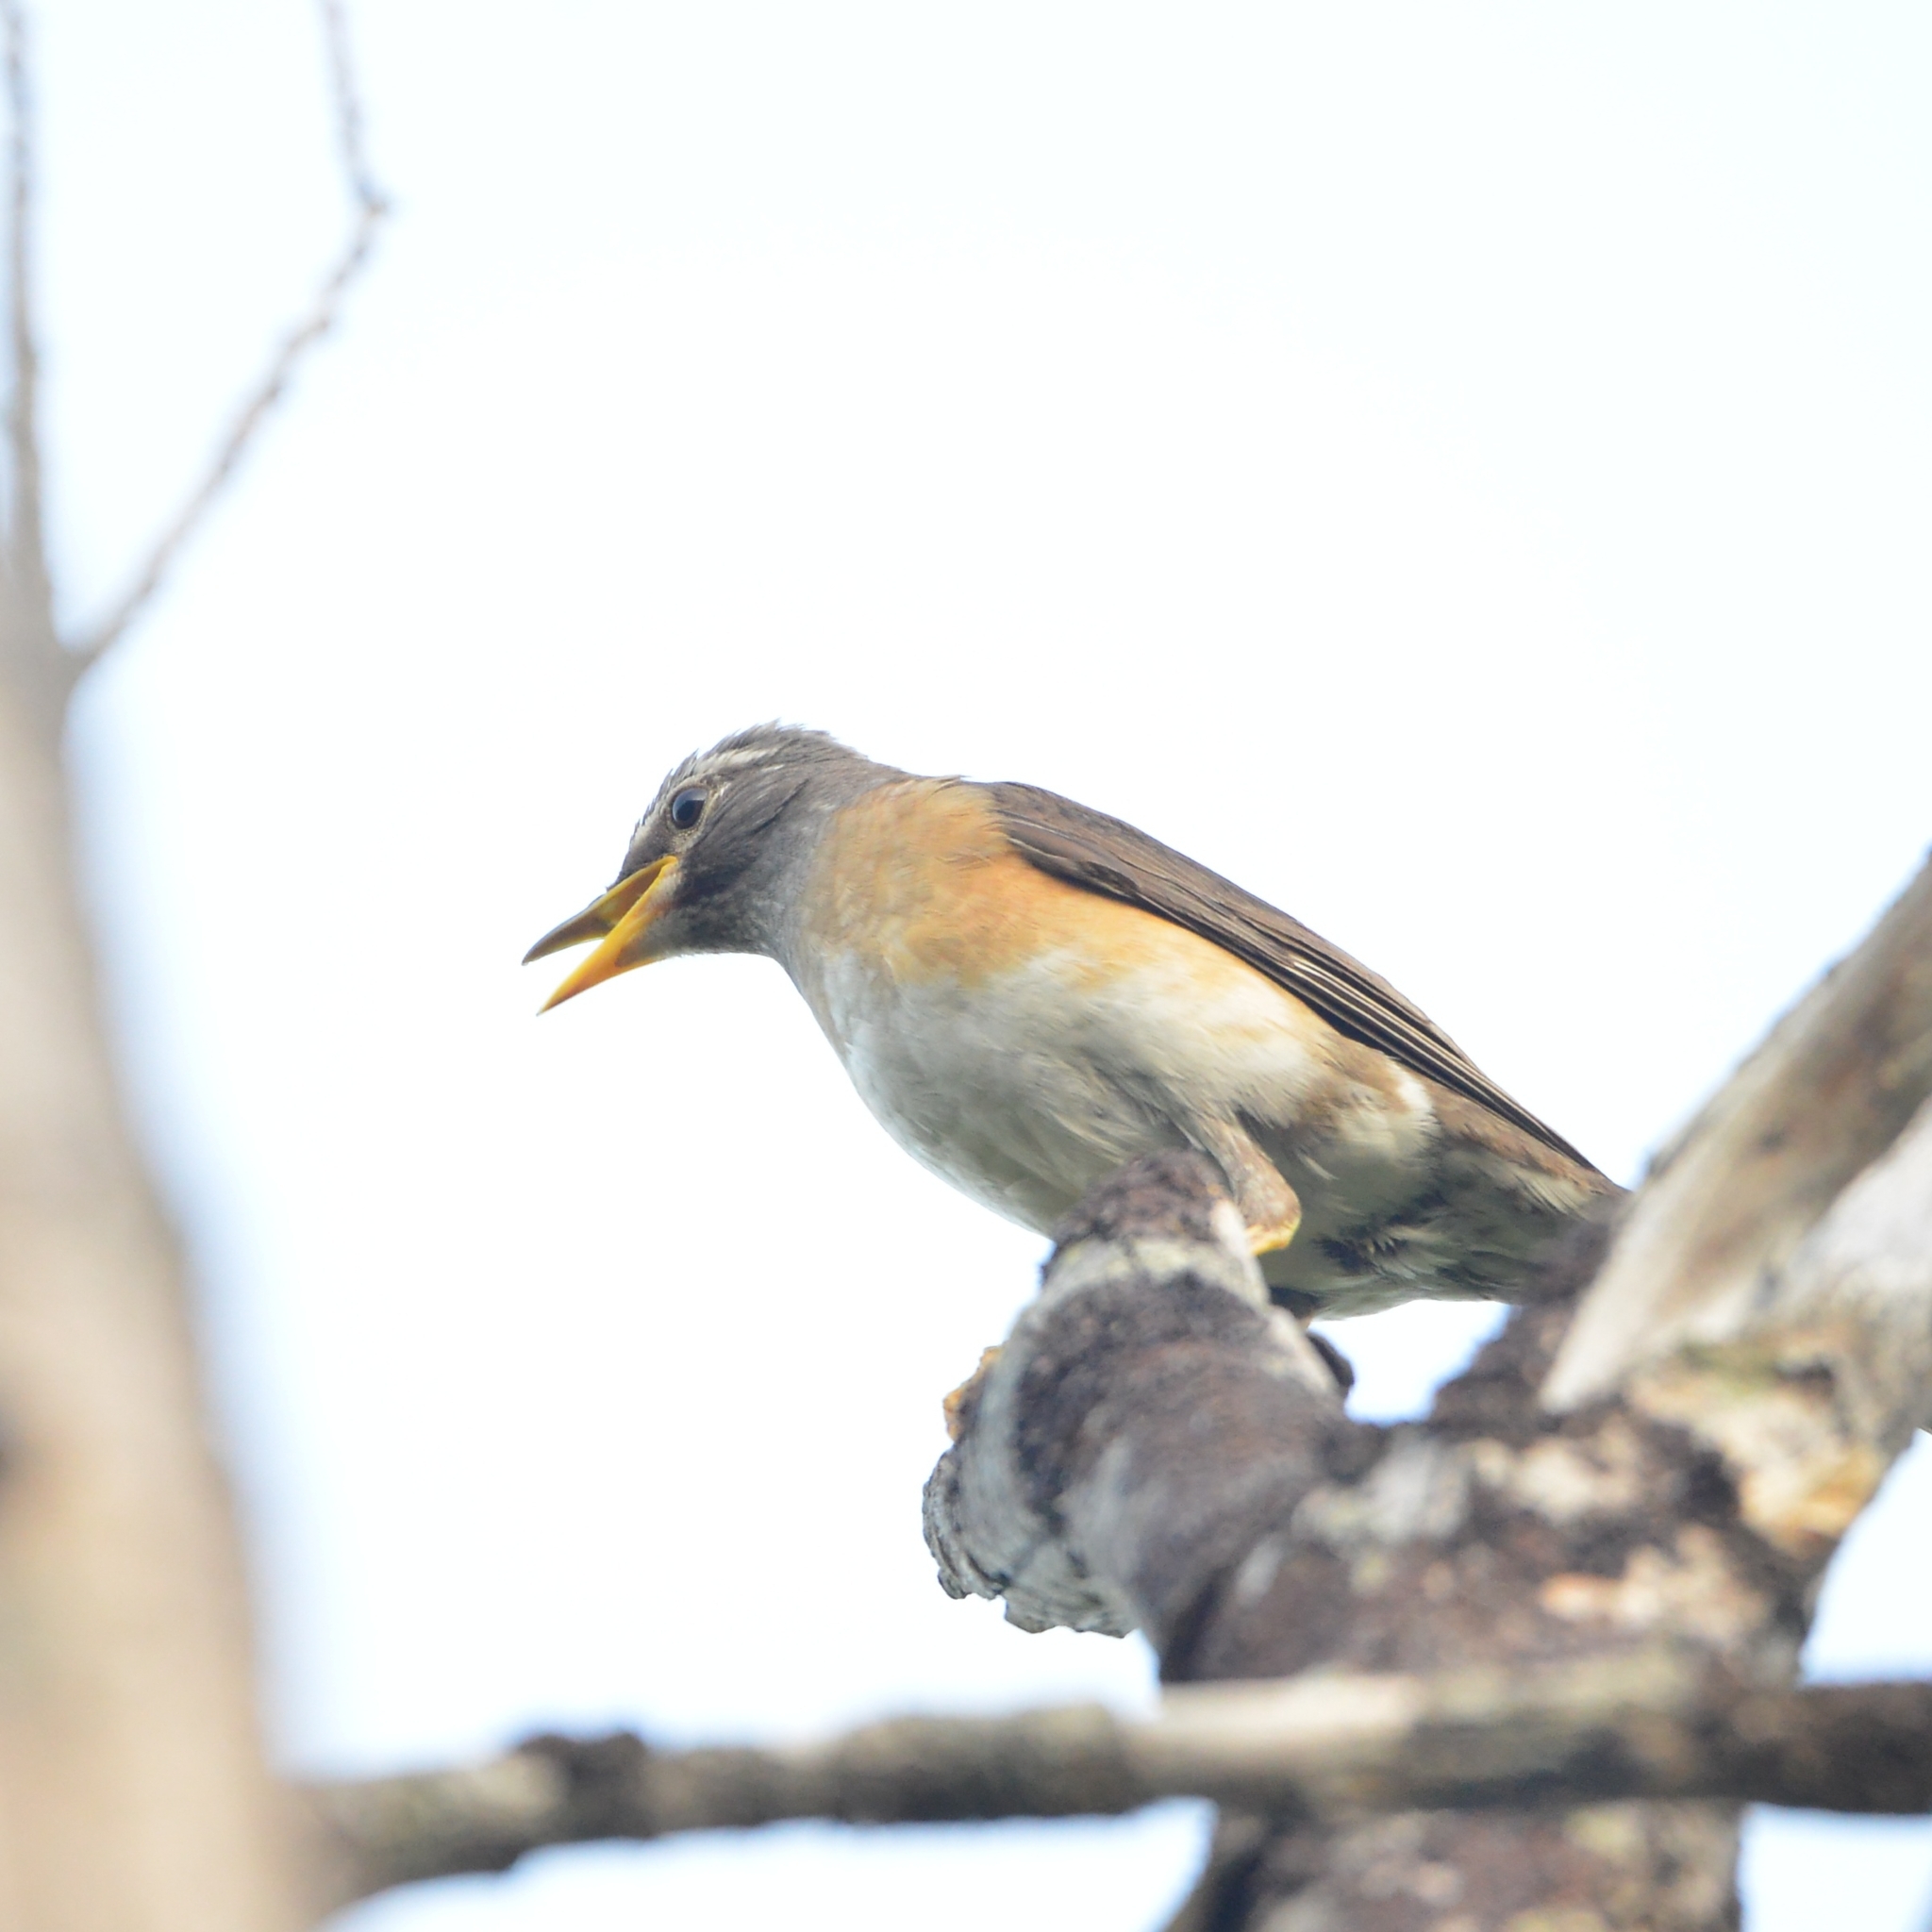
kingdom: Animalia
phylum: Chordata
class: Aves
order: Passeriformes
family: Turdidae
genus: Turdus
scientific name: Turdus obscurus
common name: Eyebrowed thrush
